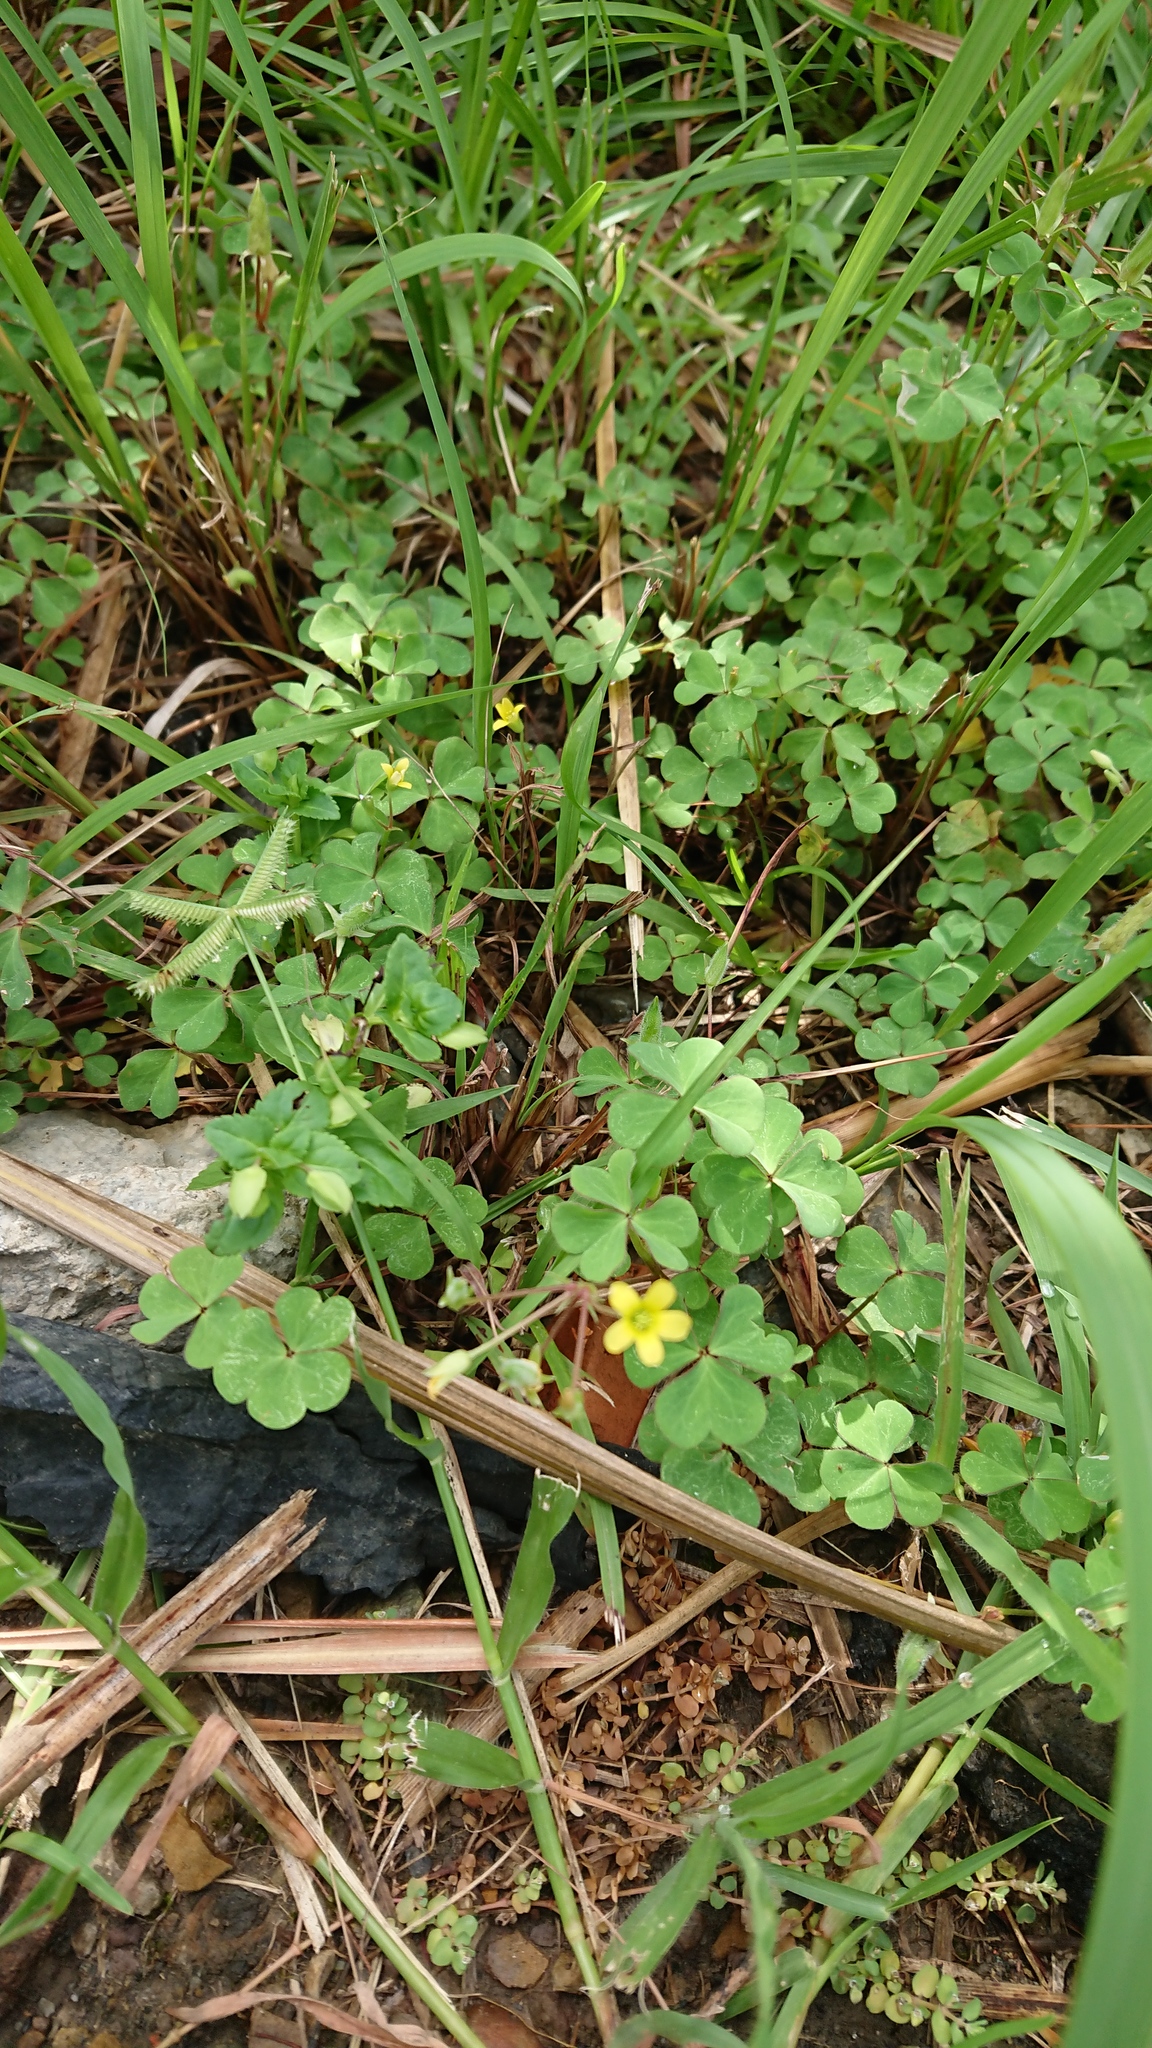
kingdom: Plantae
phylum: Tracheophyta
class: Magnoliopsida
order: Oxalidales
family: Oxalidaceae
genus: Oxalis
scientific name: Oxalis corniculata
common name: Procumbent yellow-sorrel
